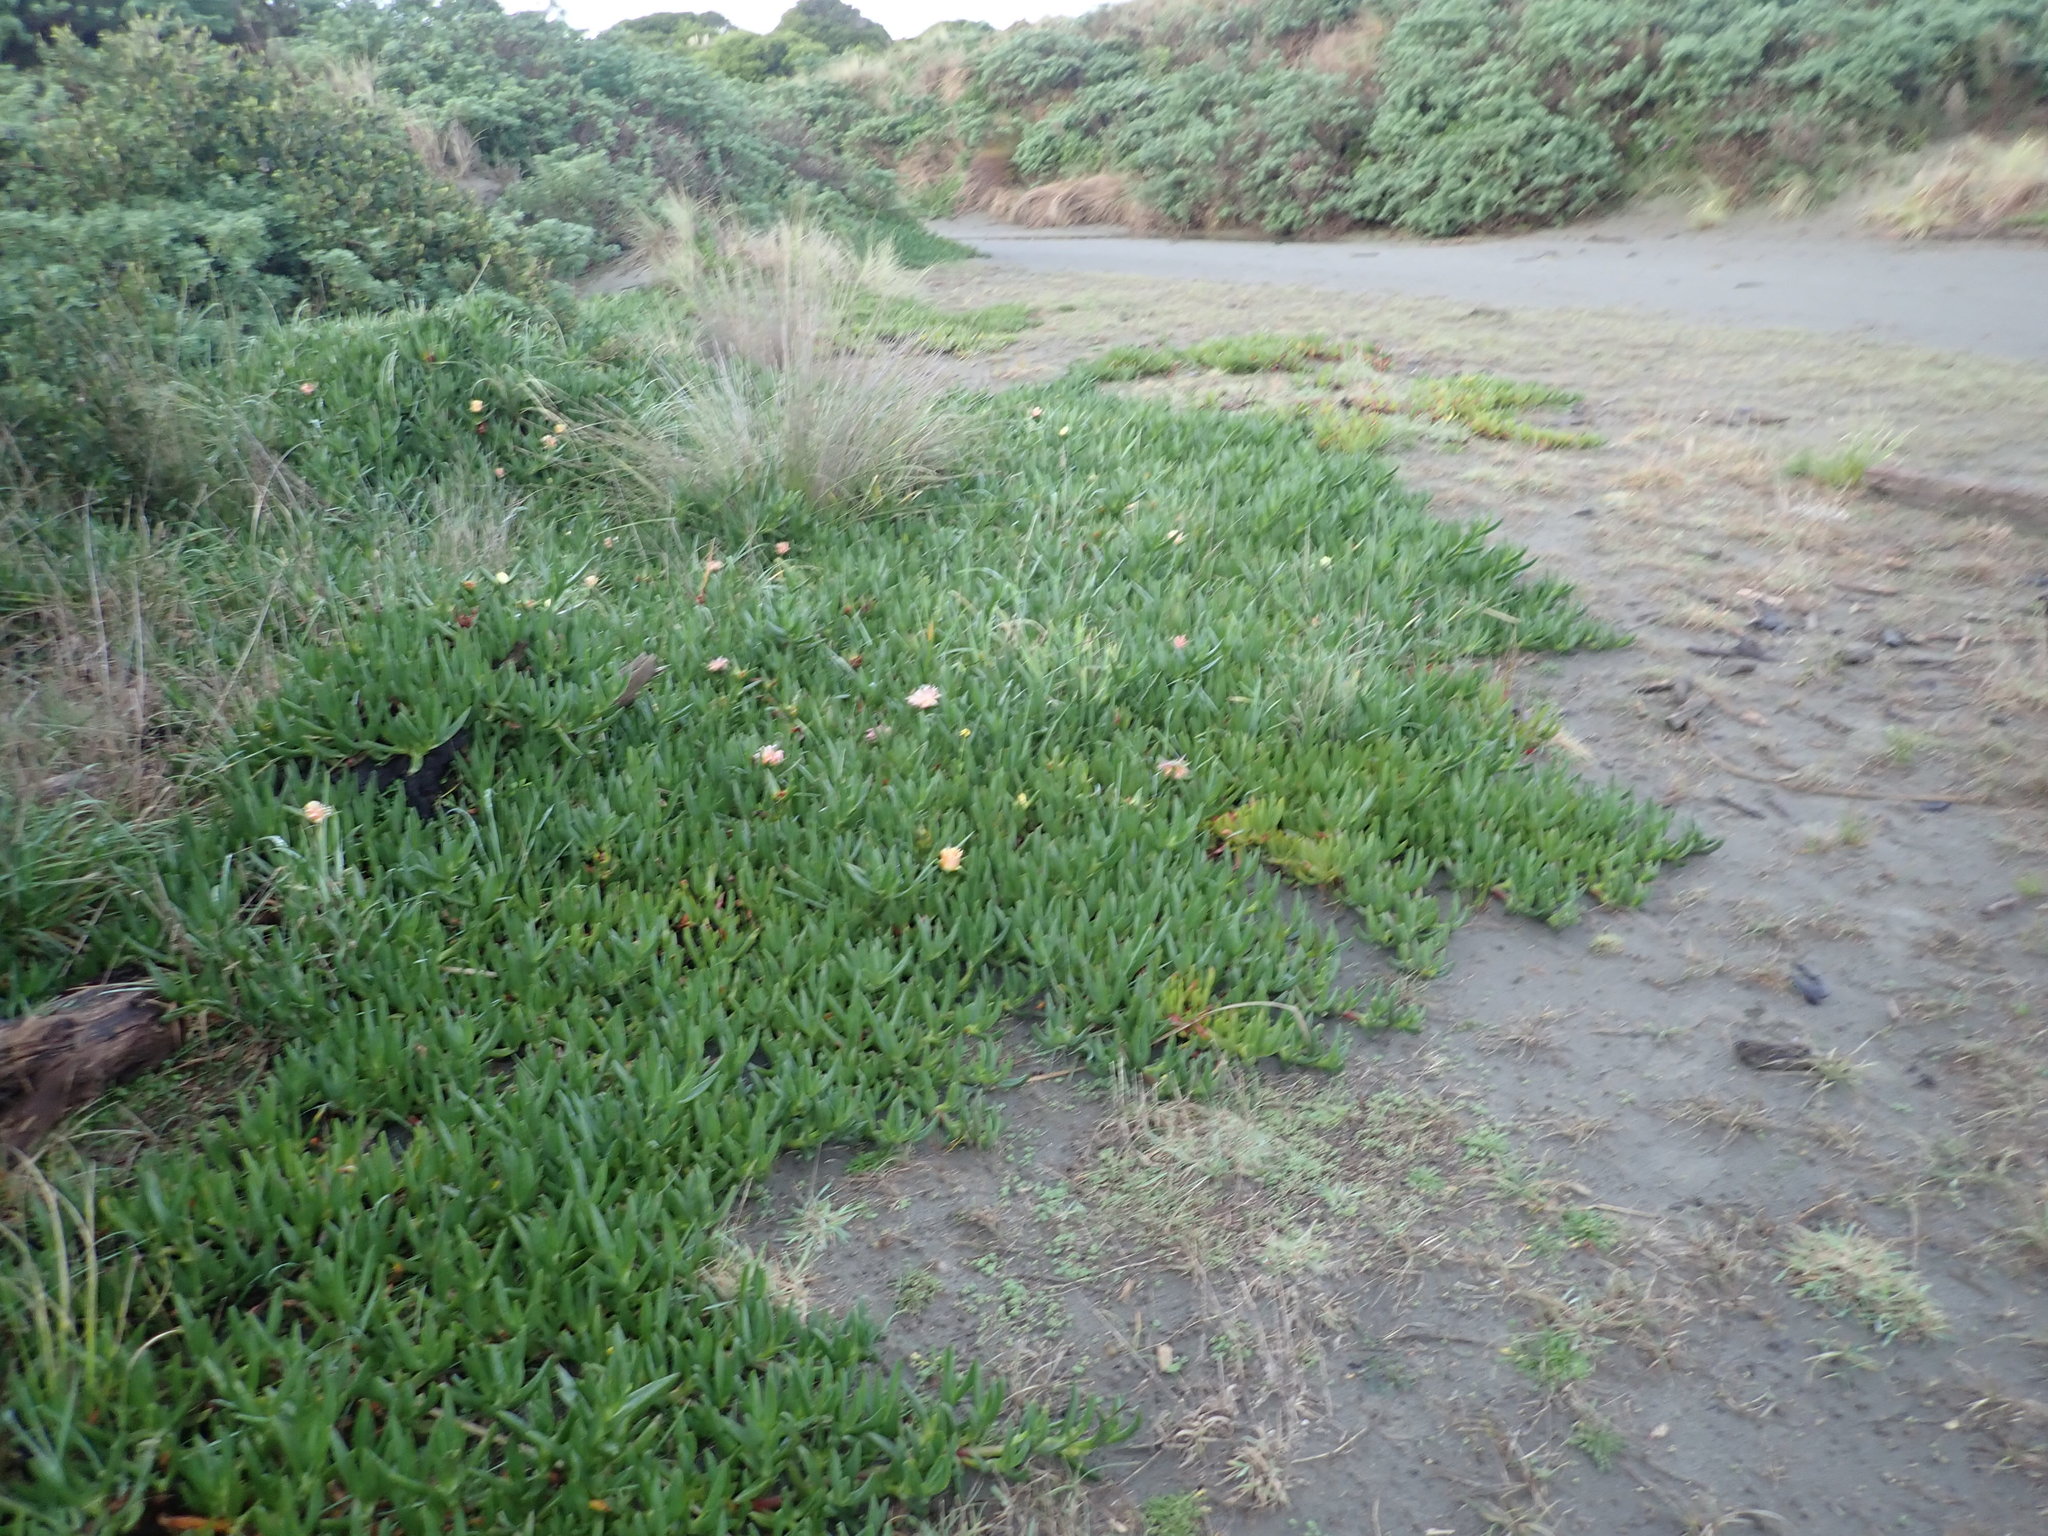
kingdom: Plantae
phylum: Tracheophyta
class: Magnoliopsida
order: Caryophyllales
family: Aizoaceae
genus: Carpobrotus
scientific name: Carpobrotus edulis
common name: Hottentot-fig
